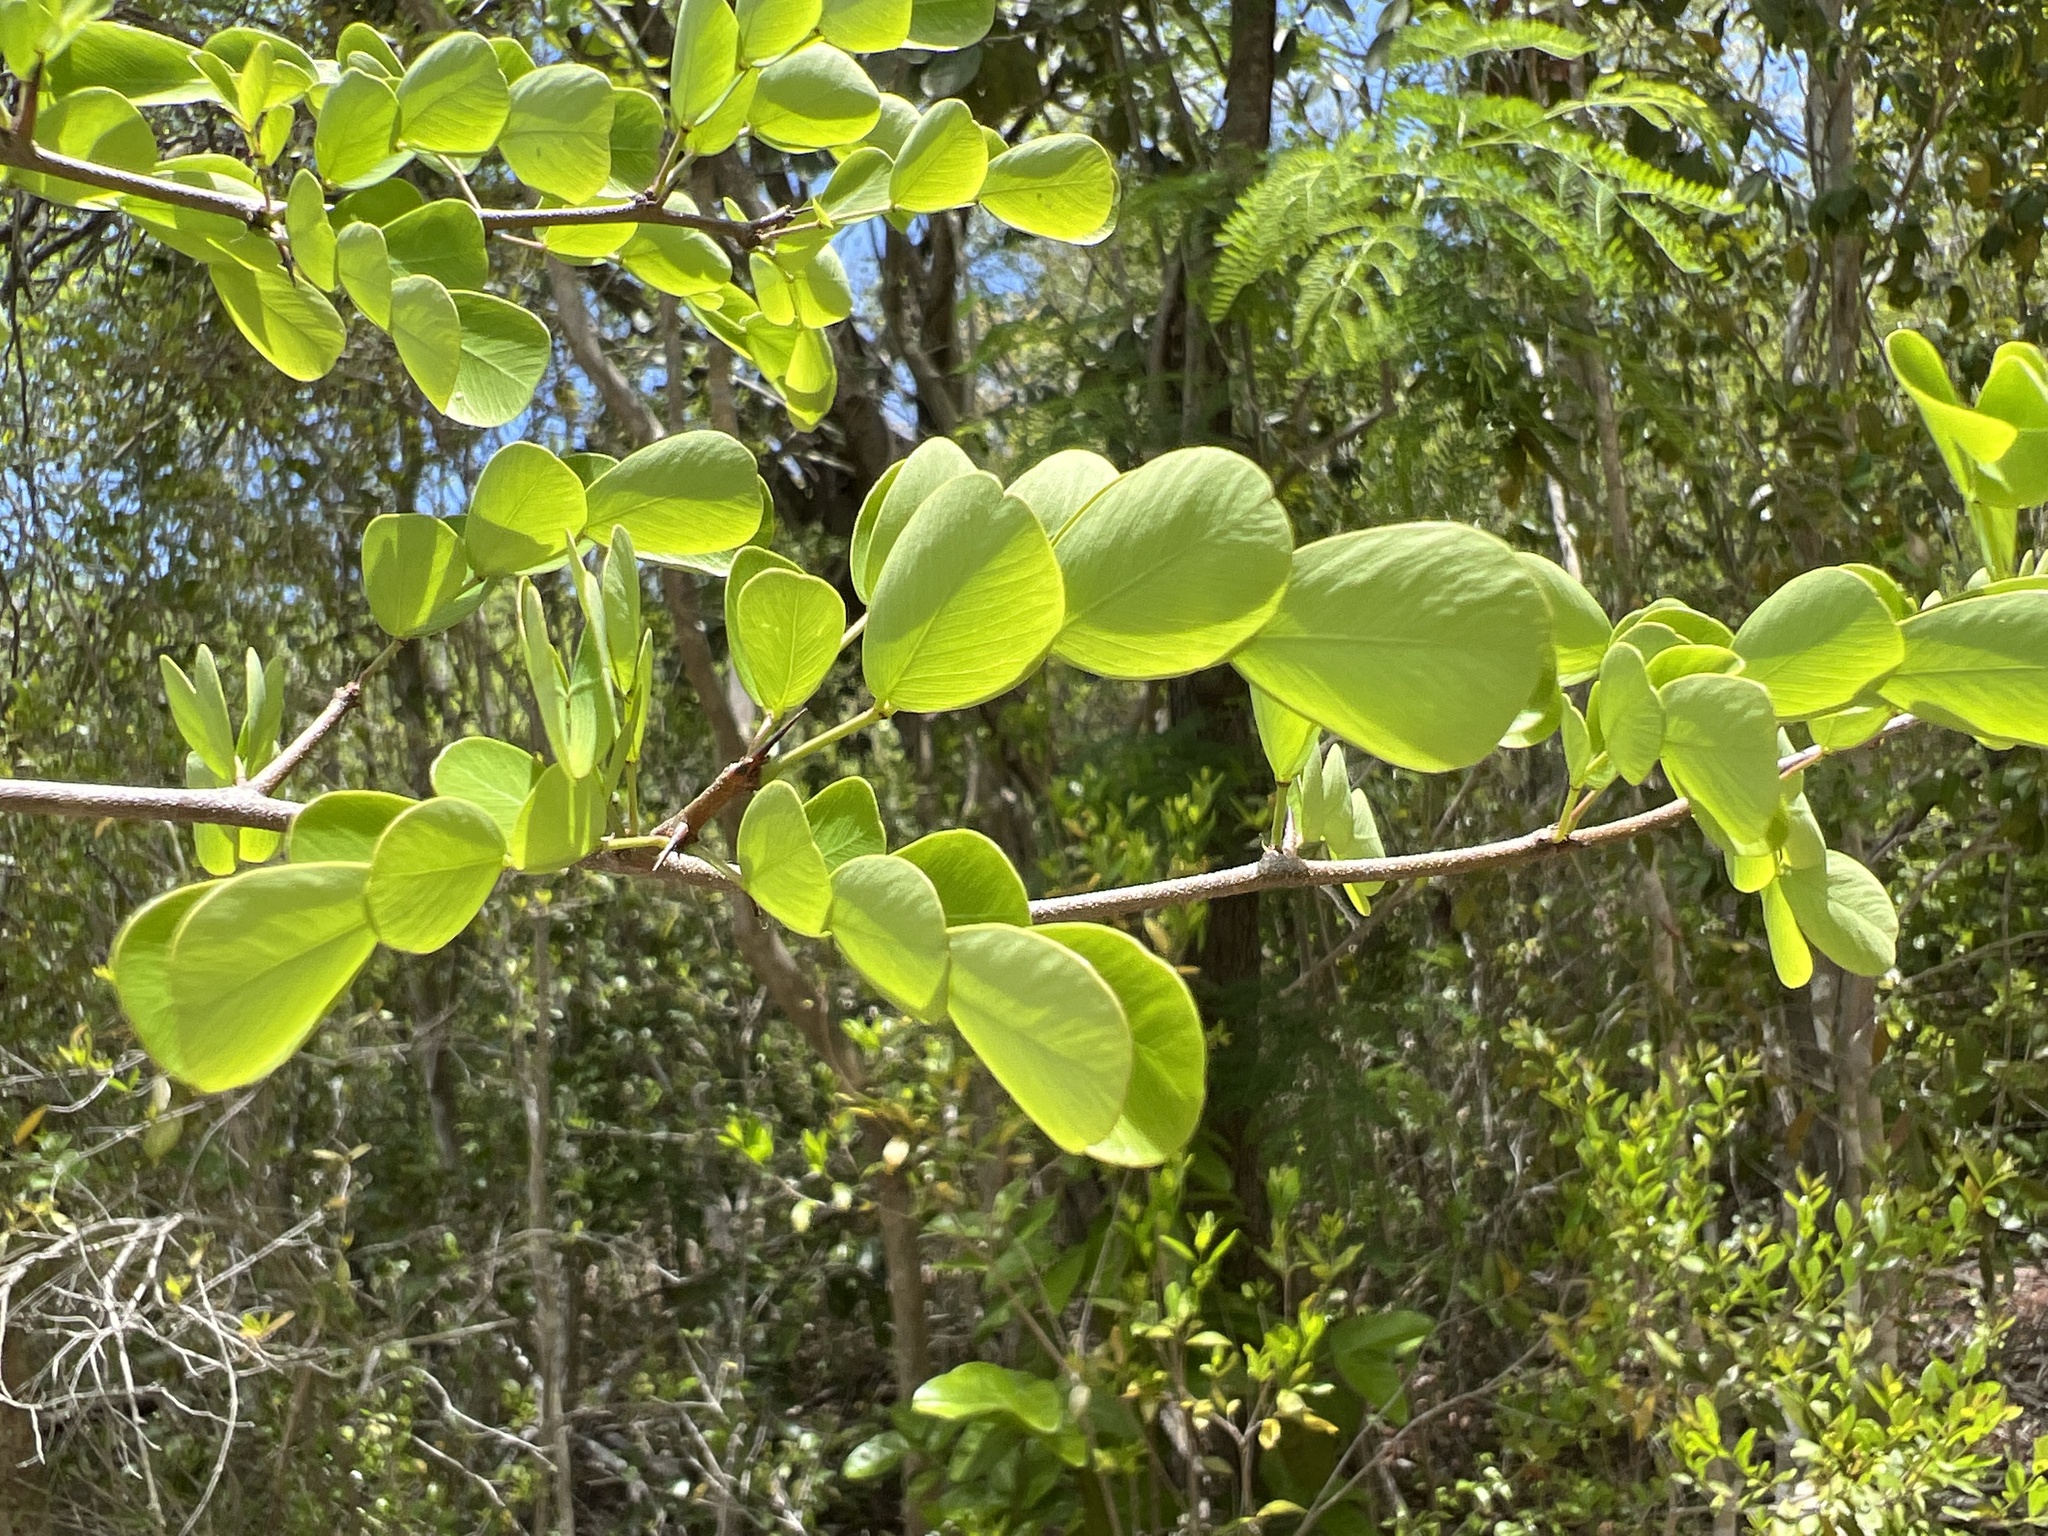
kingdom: Plantae
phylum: Tracheophyta
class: Magnoliopsida
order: Fabales
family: Fabaceae
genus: Haematoxylum
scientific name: Haematoxylum campechianum
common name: Logwood
